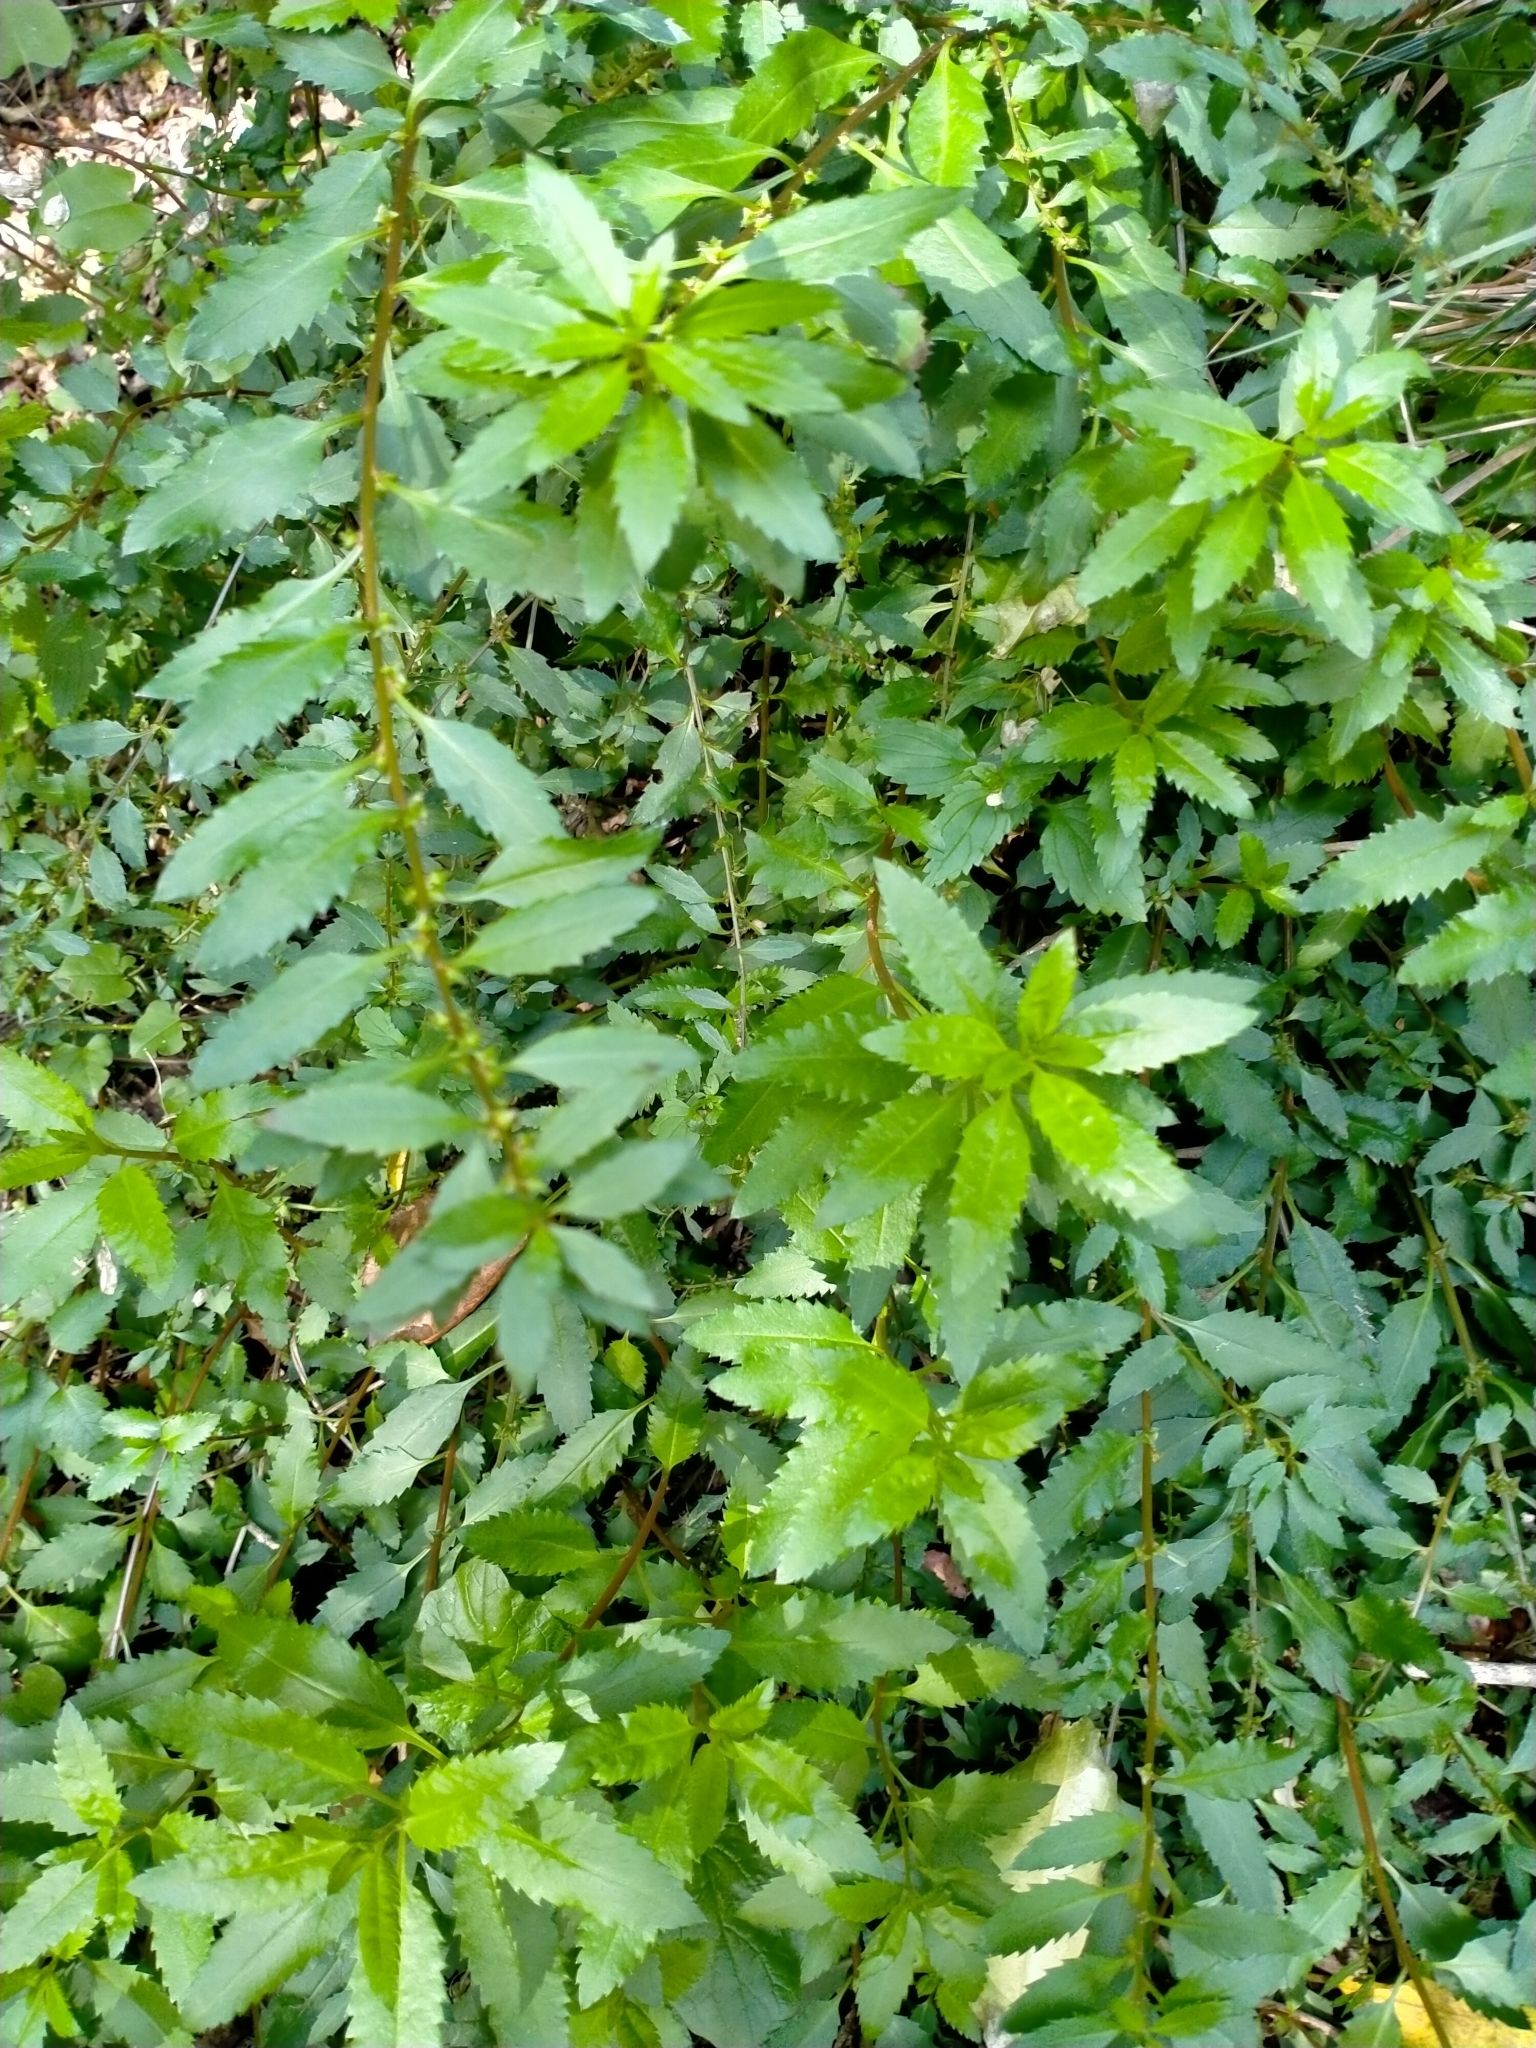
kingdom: Plantae
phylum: Tracheophyta
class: Magnoliopsida
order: Saxifragales
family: Haloragaceae
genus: Haloragis
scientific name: Haloragis erecta
